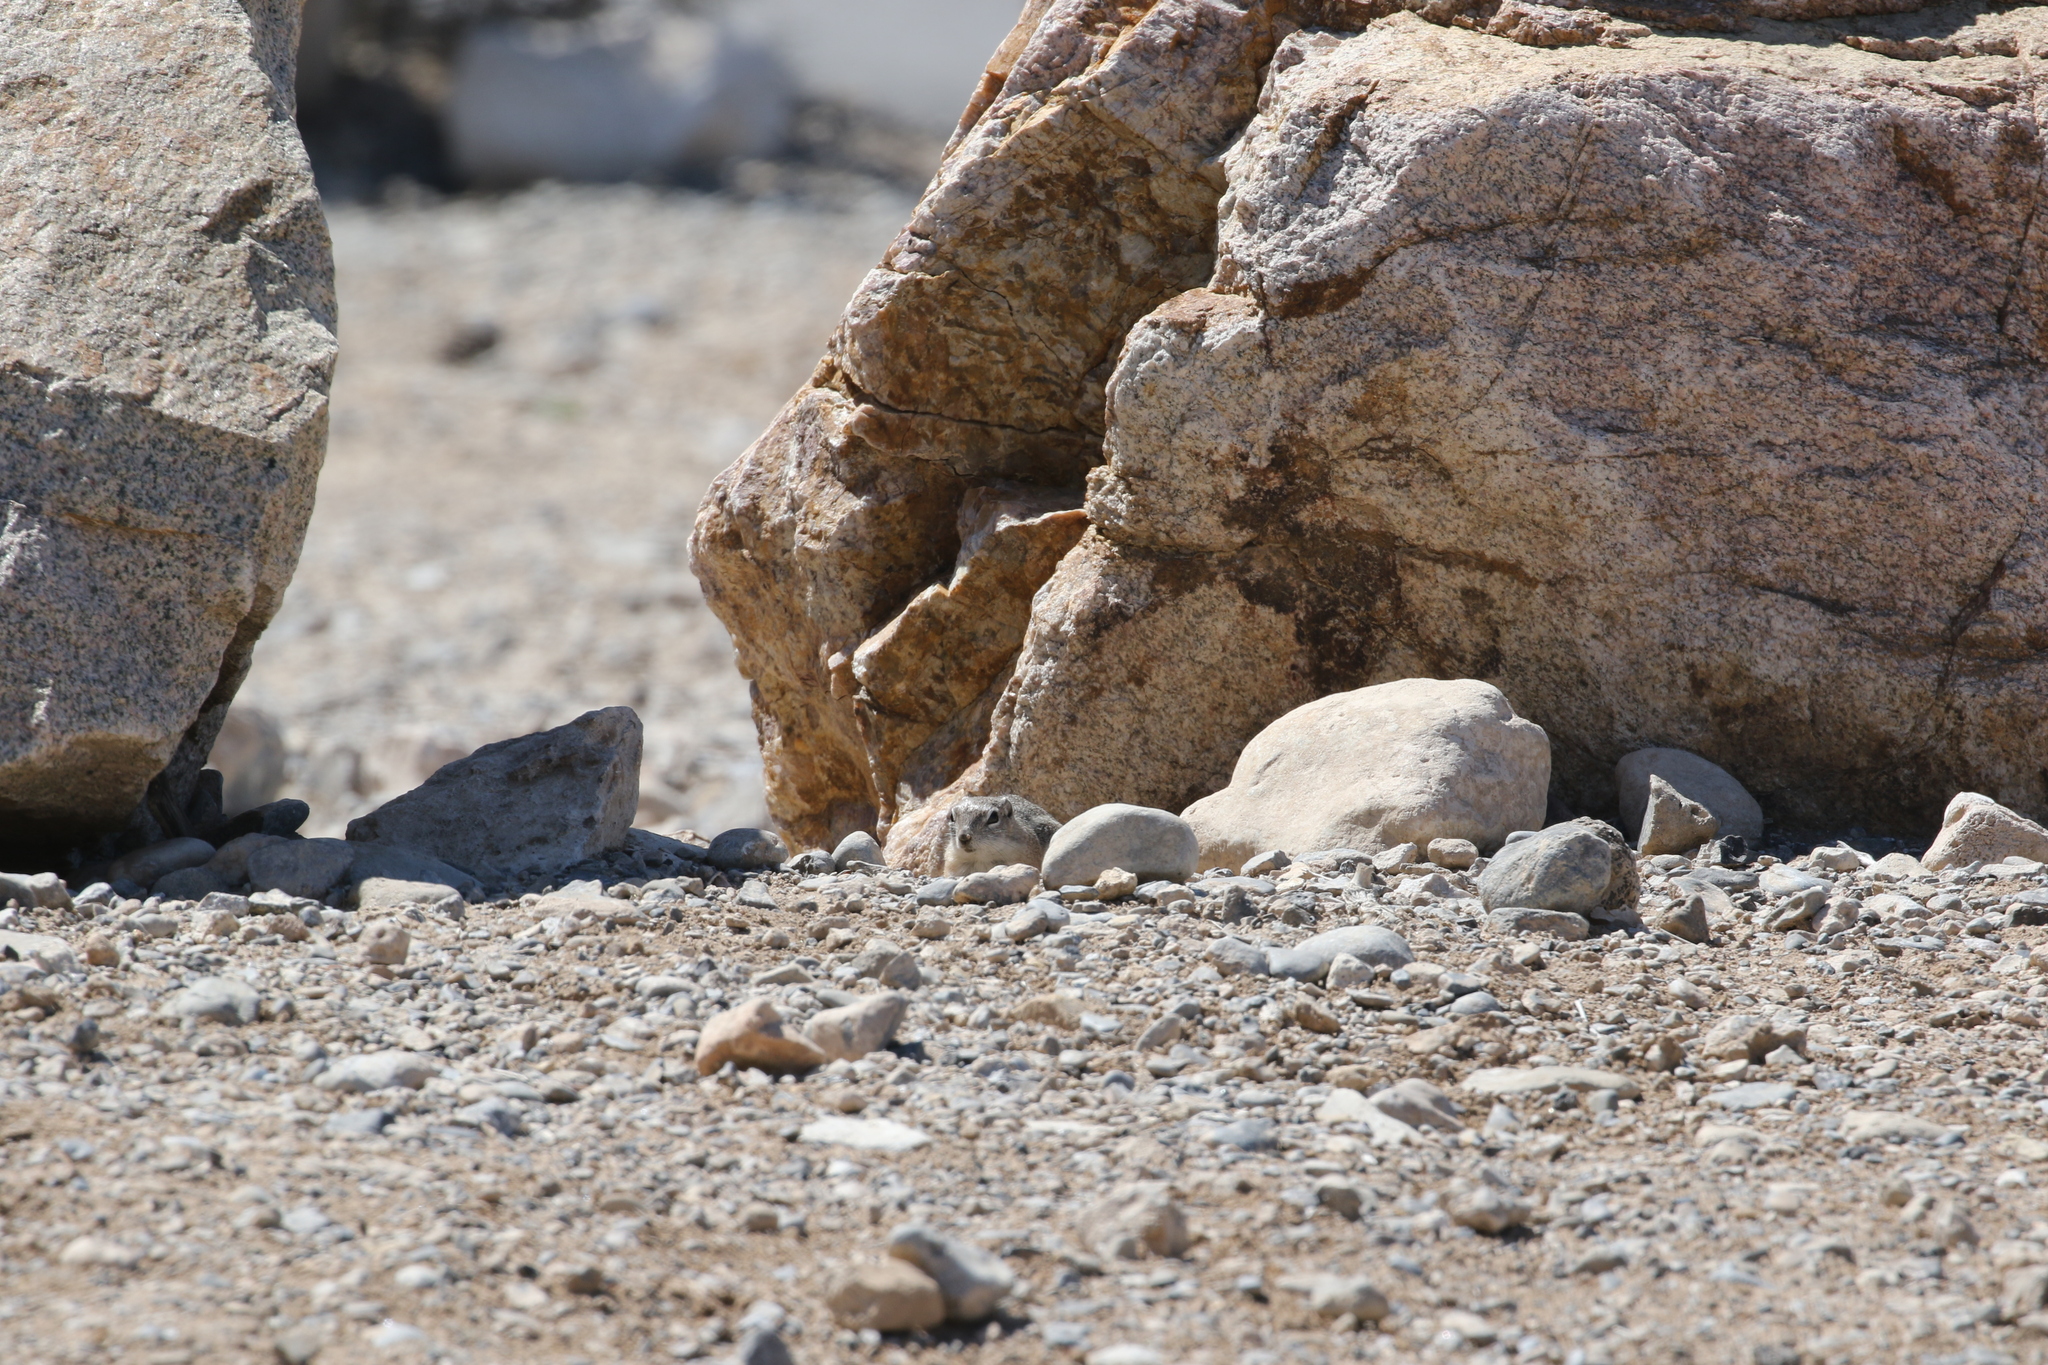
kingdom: Animalia
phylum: Chordata
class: Mammalia
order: Rodentia
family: Sciuridae
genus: Ammospermophilus
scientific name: Ammospermophilus leucurus
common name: White-tailed antelope squirrel
